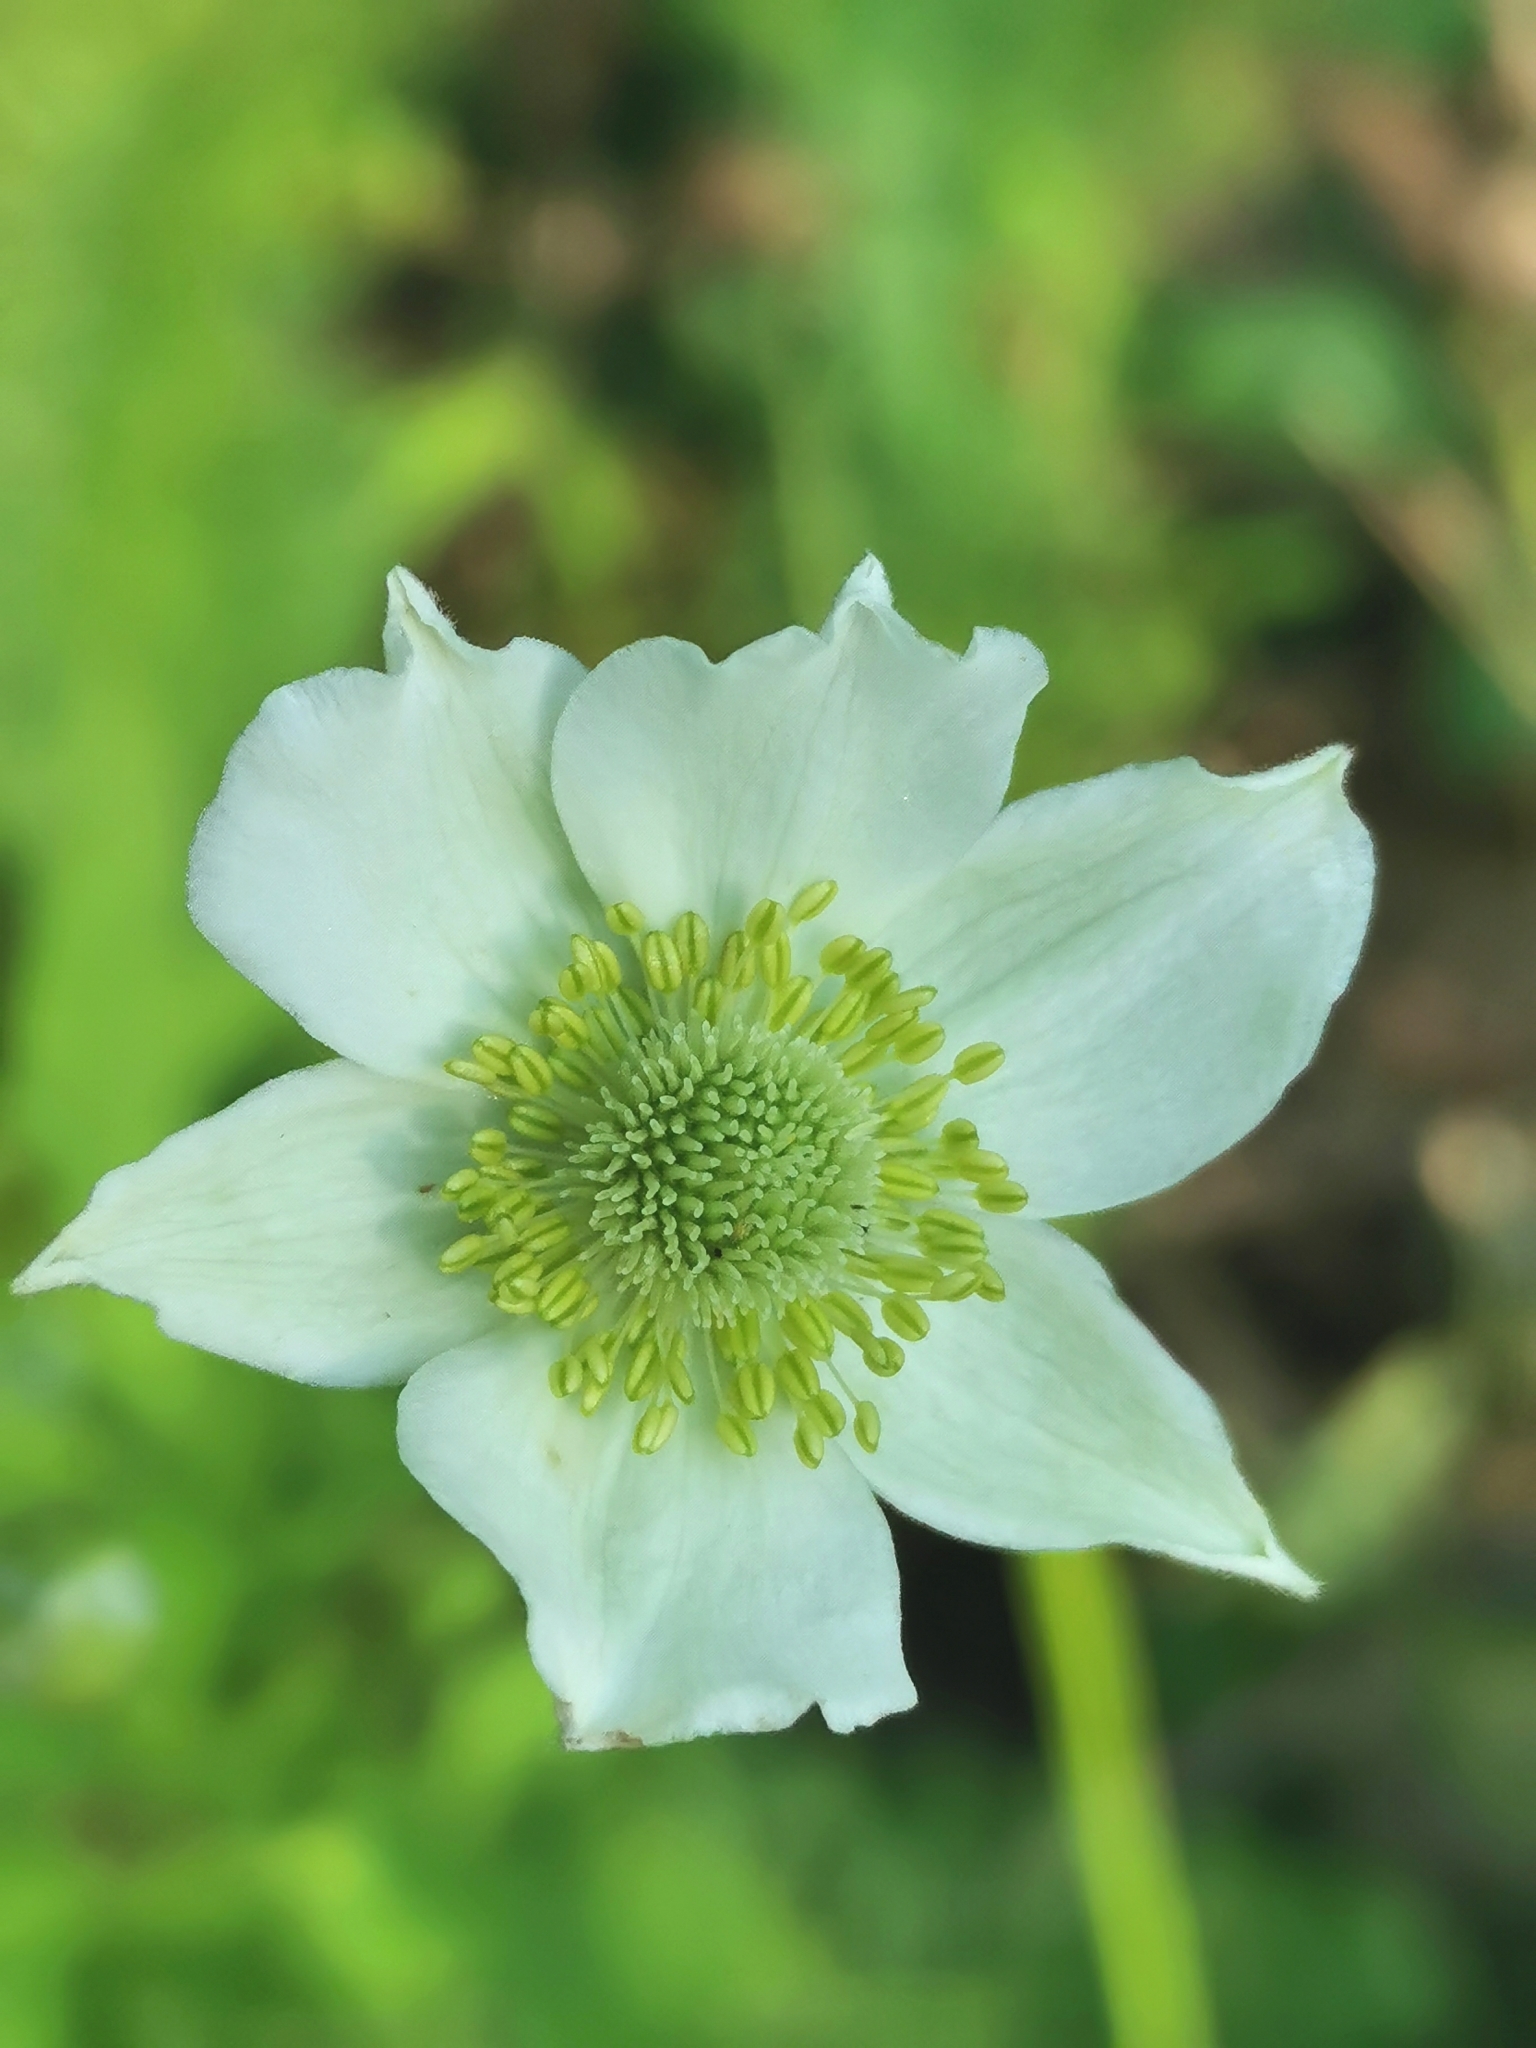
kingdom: Plantae
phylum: Tracheophyta
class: Magnoliopsida
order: Ranunculales
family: Ranunculaceae
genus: Anemone
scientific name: Anemone virginiana
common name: Tall anemone
